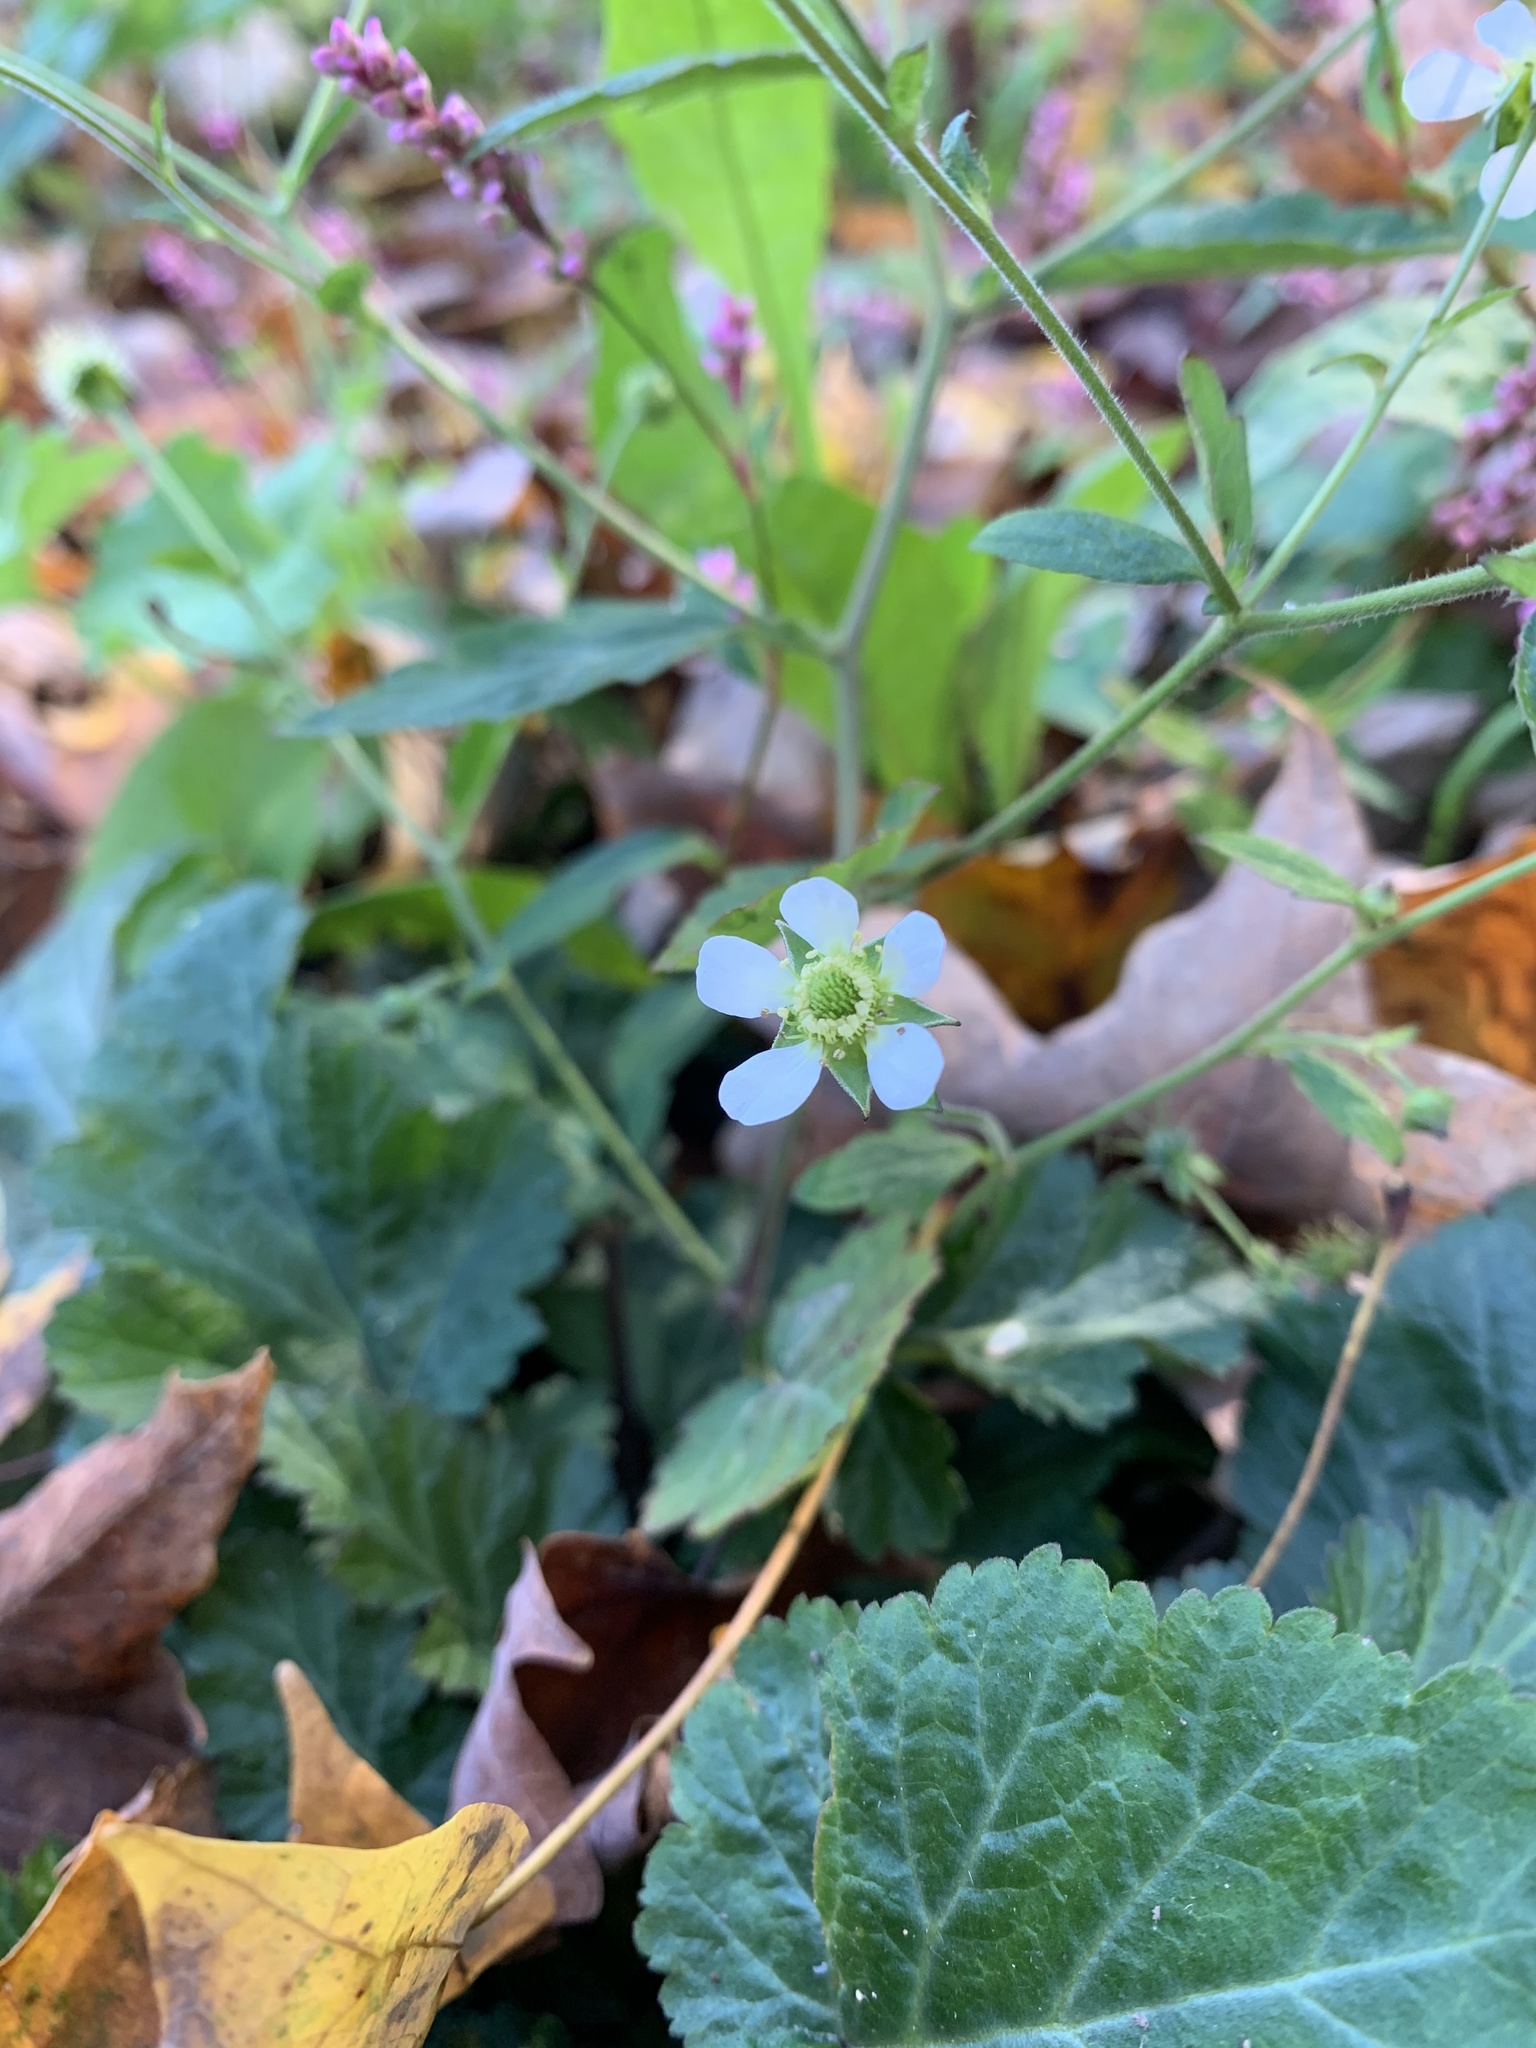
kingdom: Plantae
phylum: Tracheophyta
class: Magnoliopsida
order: Rosales
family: Rosaceae
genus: Geum
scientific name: Geum canadense
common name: White avens
